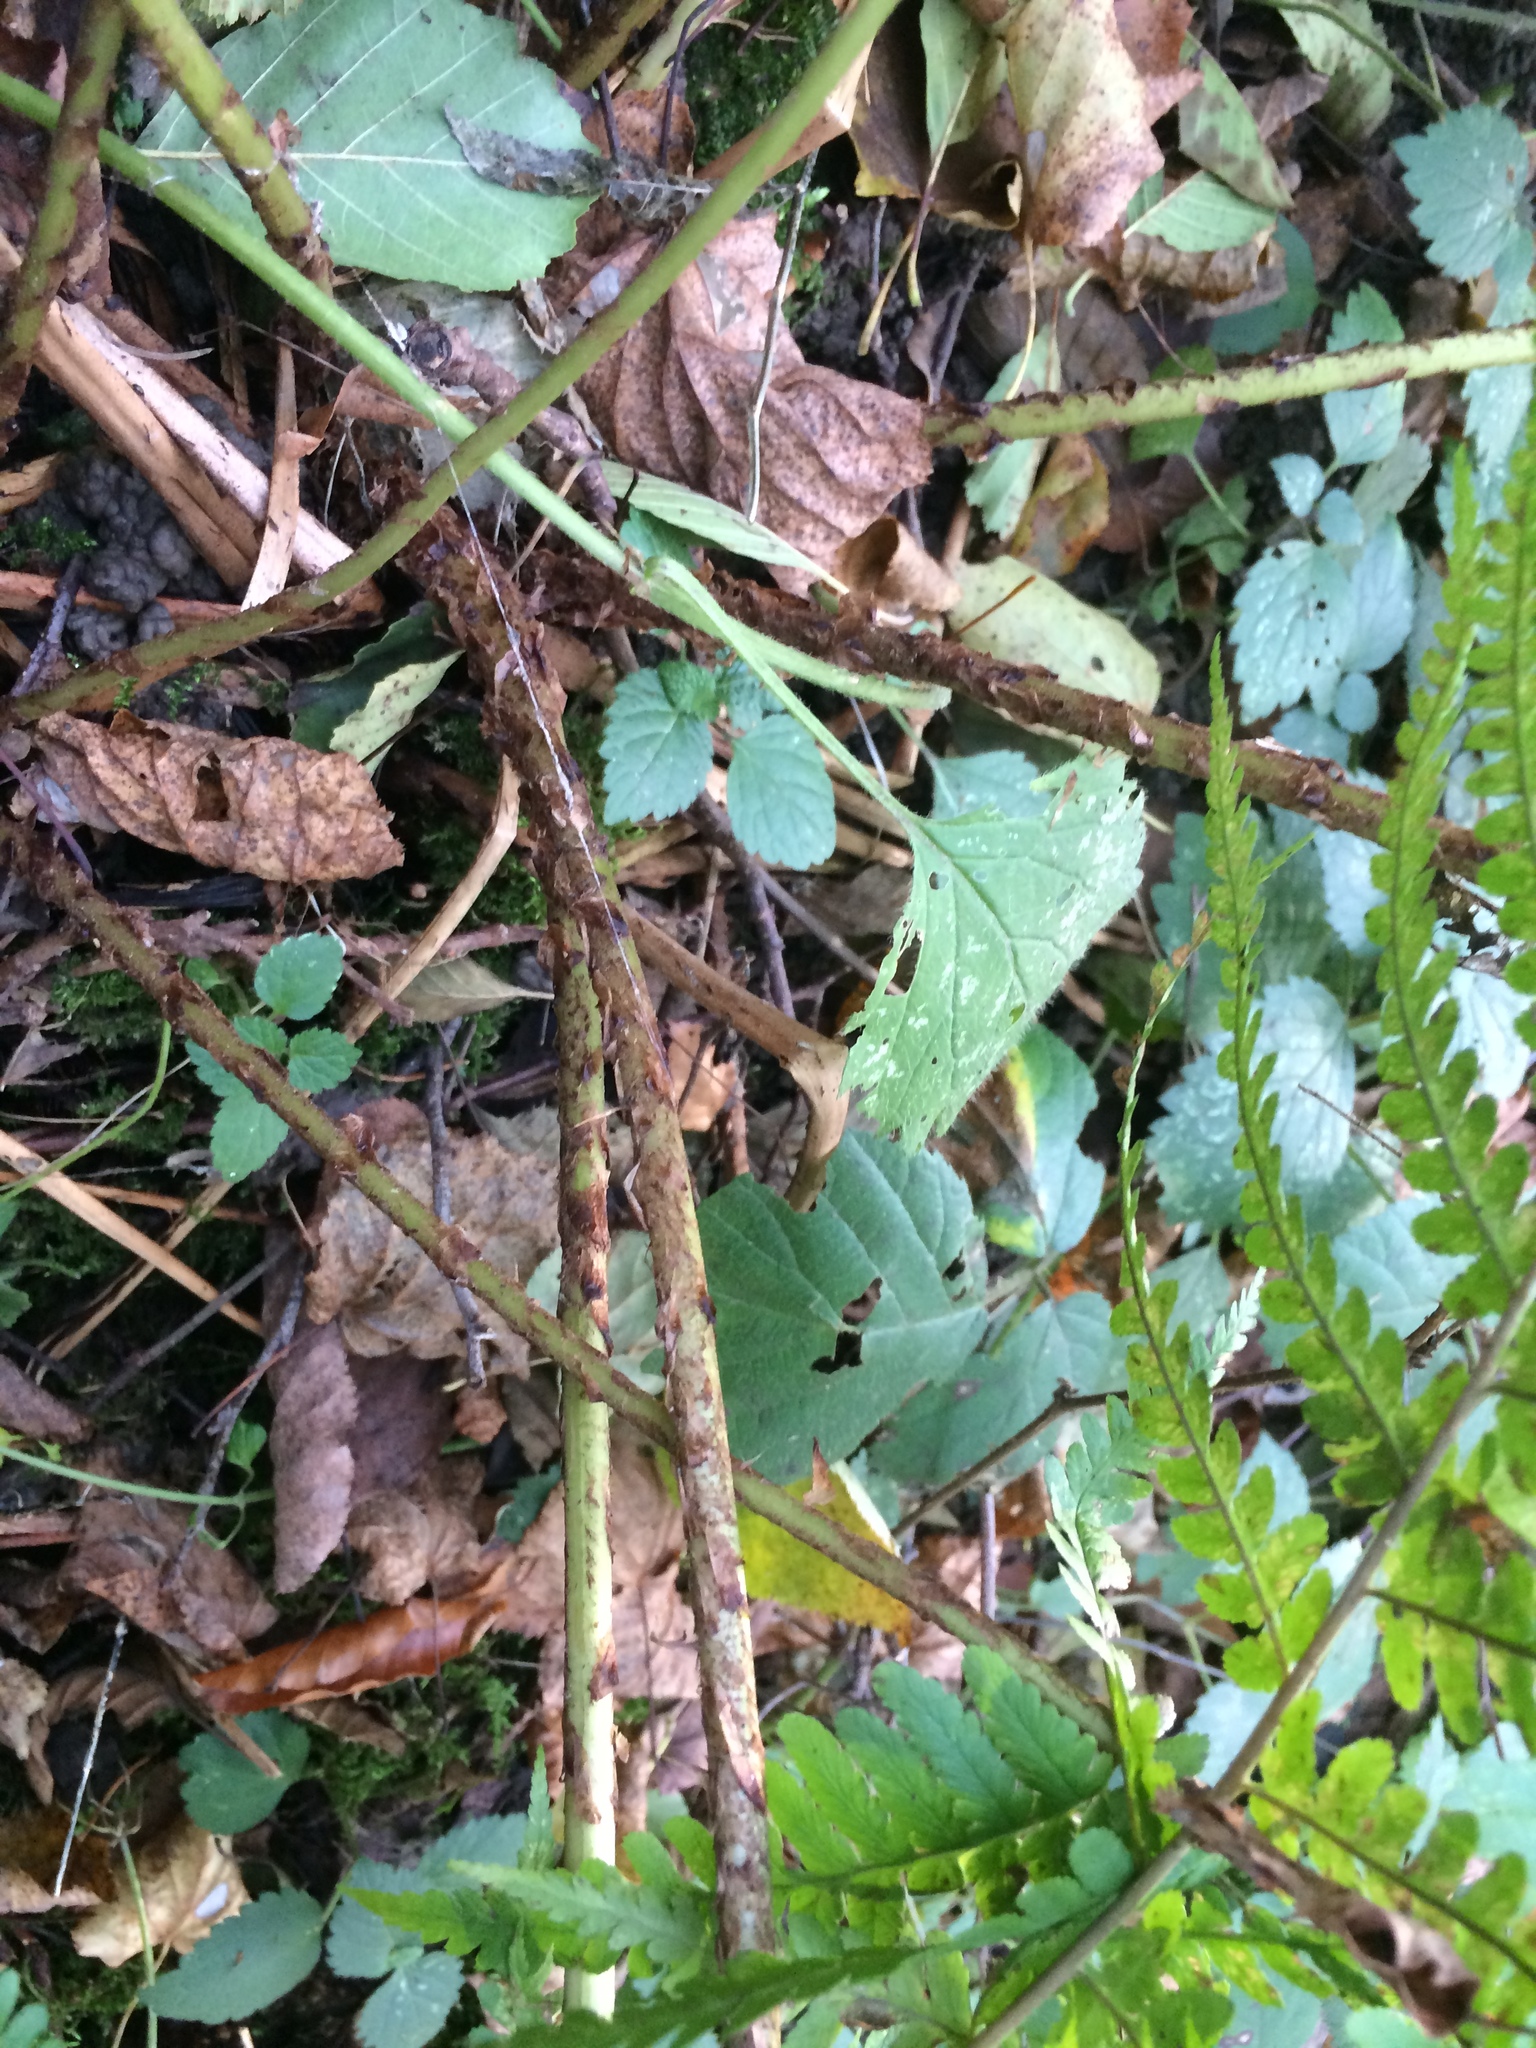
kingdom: Plantae
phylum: Tracheophyta
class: Polypodiopsida
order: Polypodiales
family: Dryopteridaceae
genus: Dryopteris
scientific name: Dryopteris filix-mas
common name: Male fern
